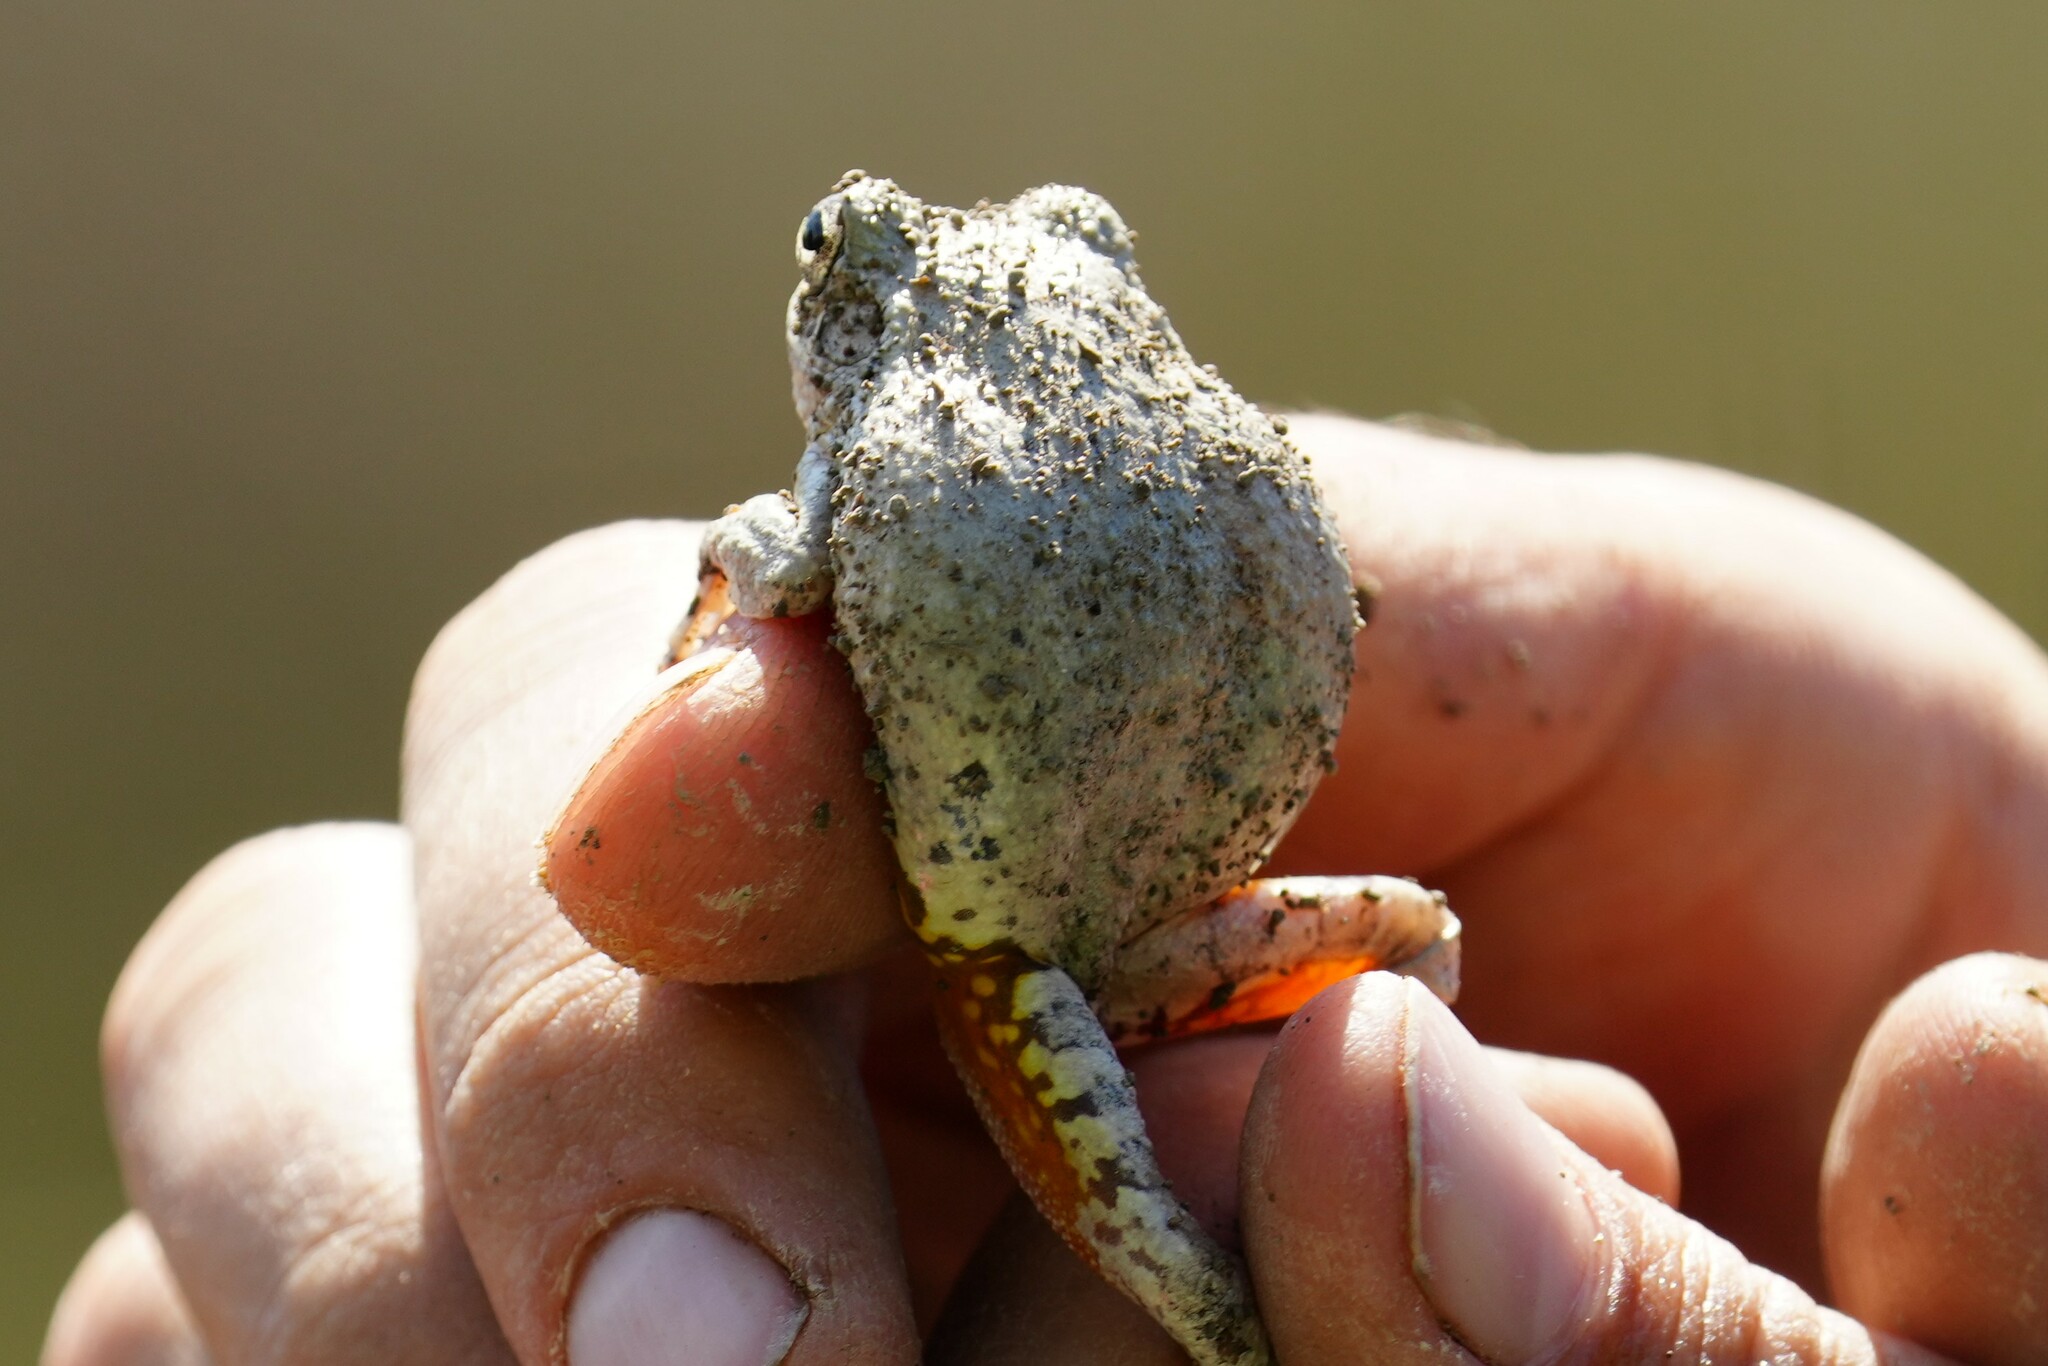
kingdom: Animalia
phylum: Chordata
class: Amphibia
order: Anura
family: Hylidae
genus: Dryophytes
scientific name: Dryophytes chrysoscelis
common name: Cope's gray treefrog
